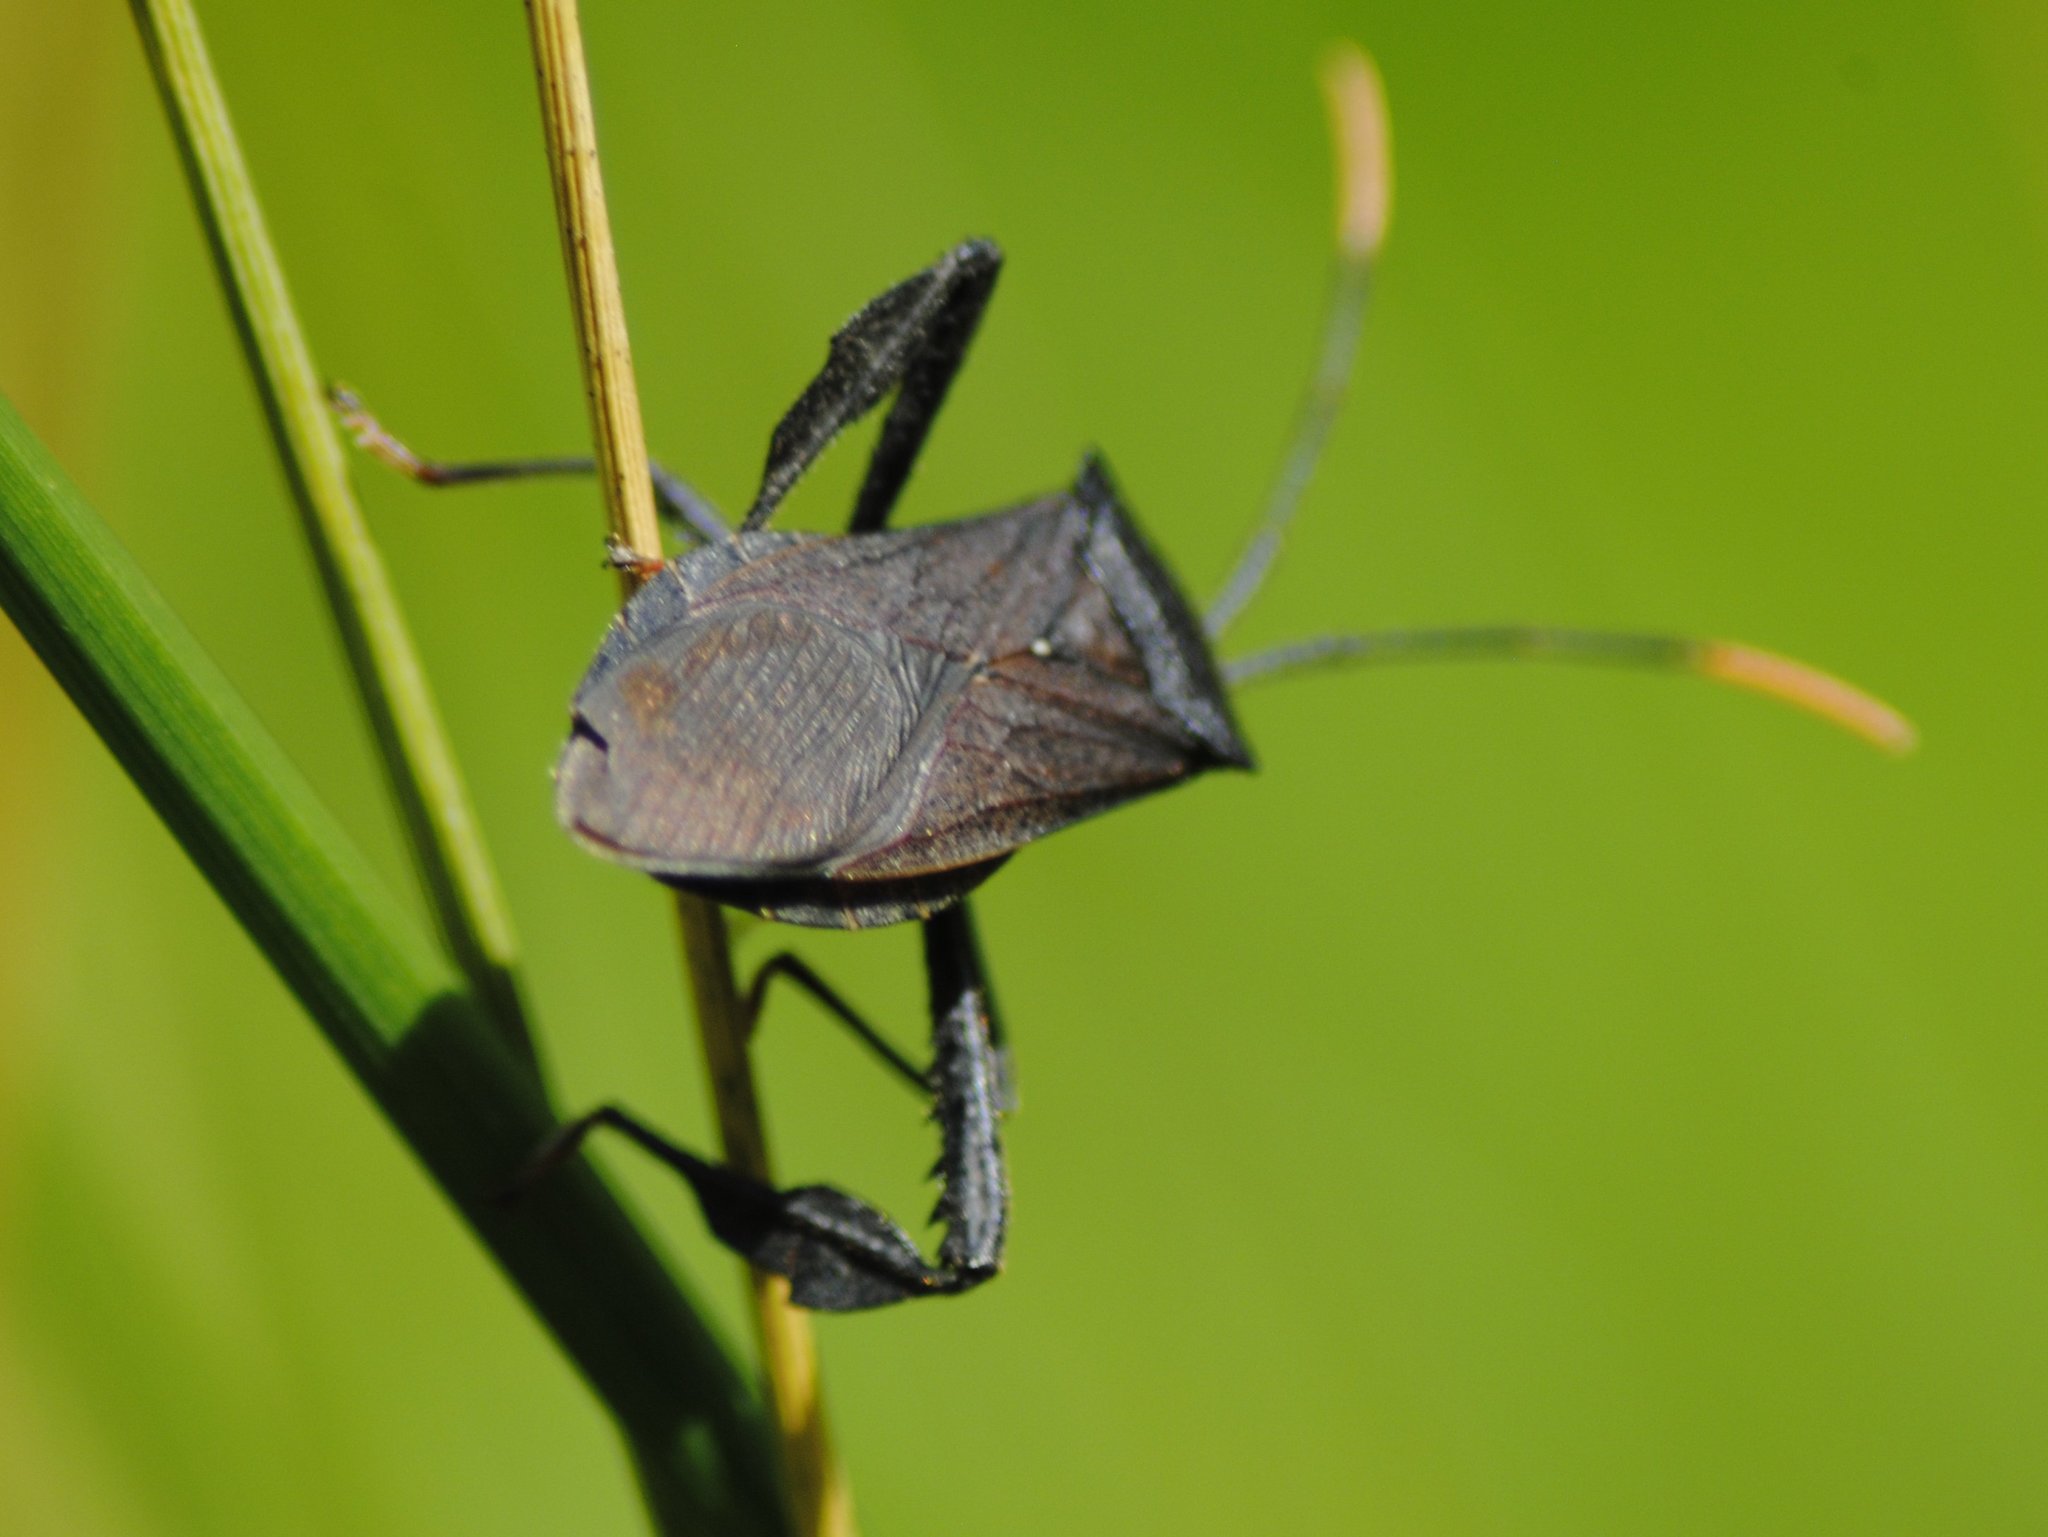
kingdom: Animalia
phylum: Arthropoda
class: Insecta
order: Hemiptera
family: Coreidae
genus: Acanthocephala
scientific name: Acanthocephala terminalis
